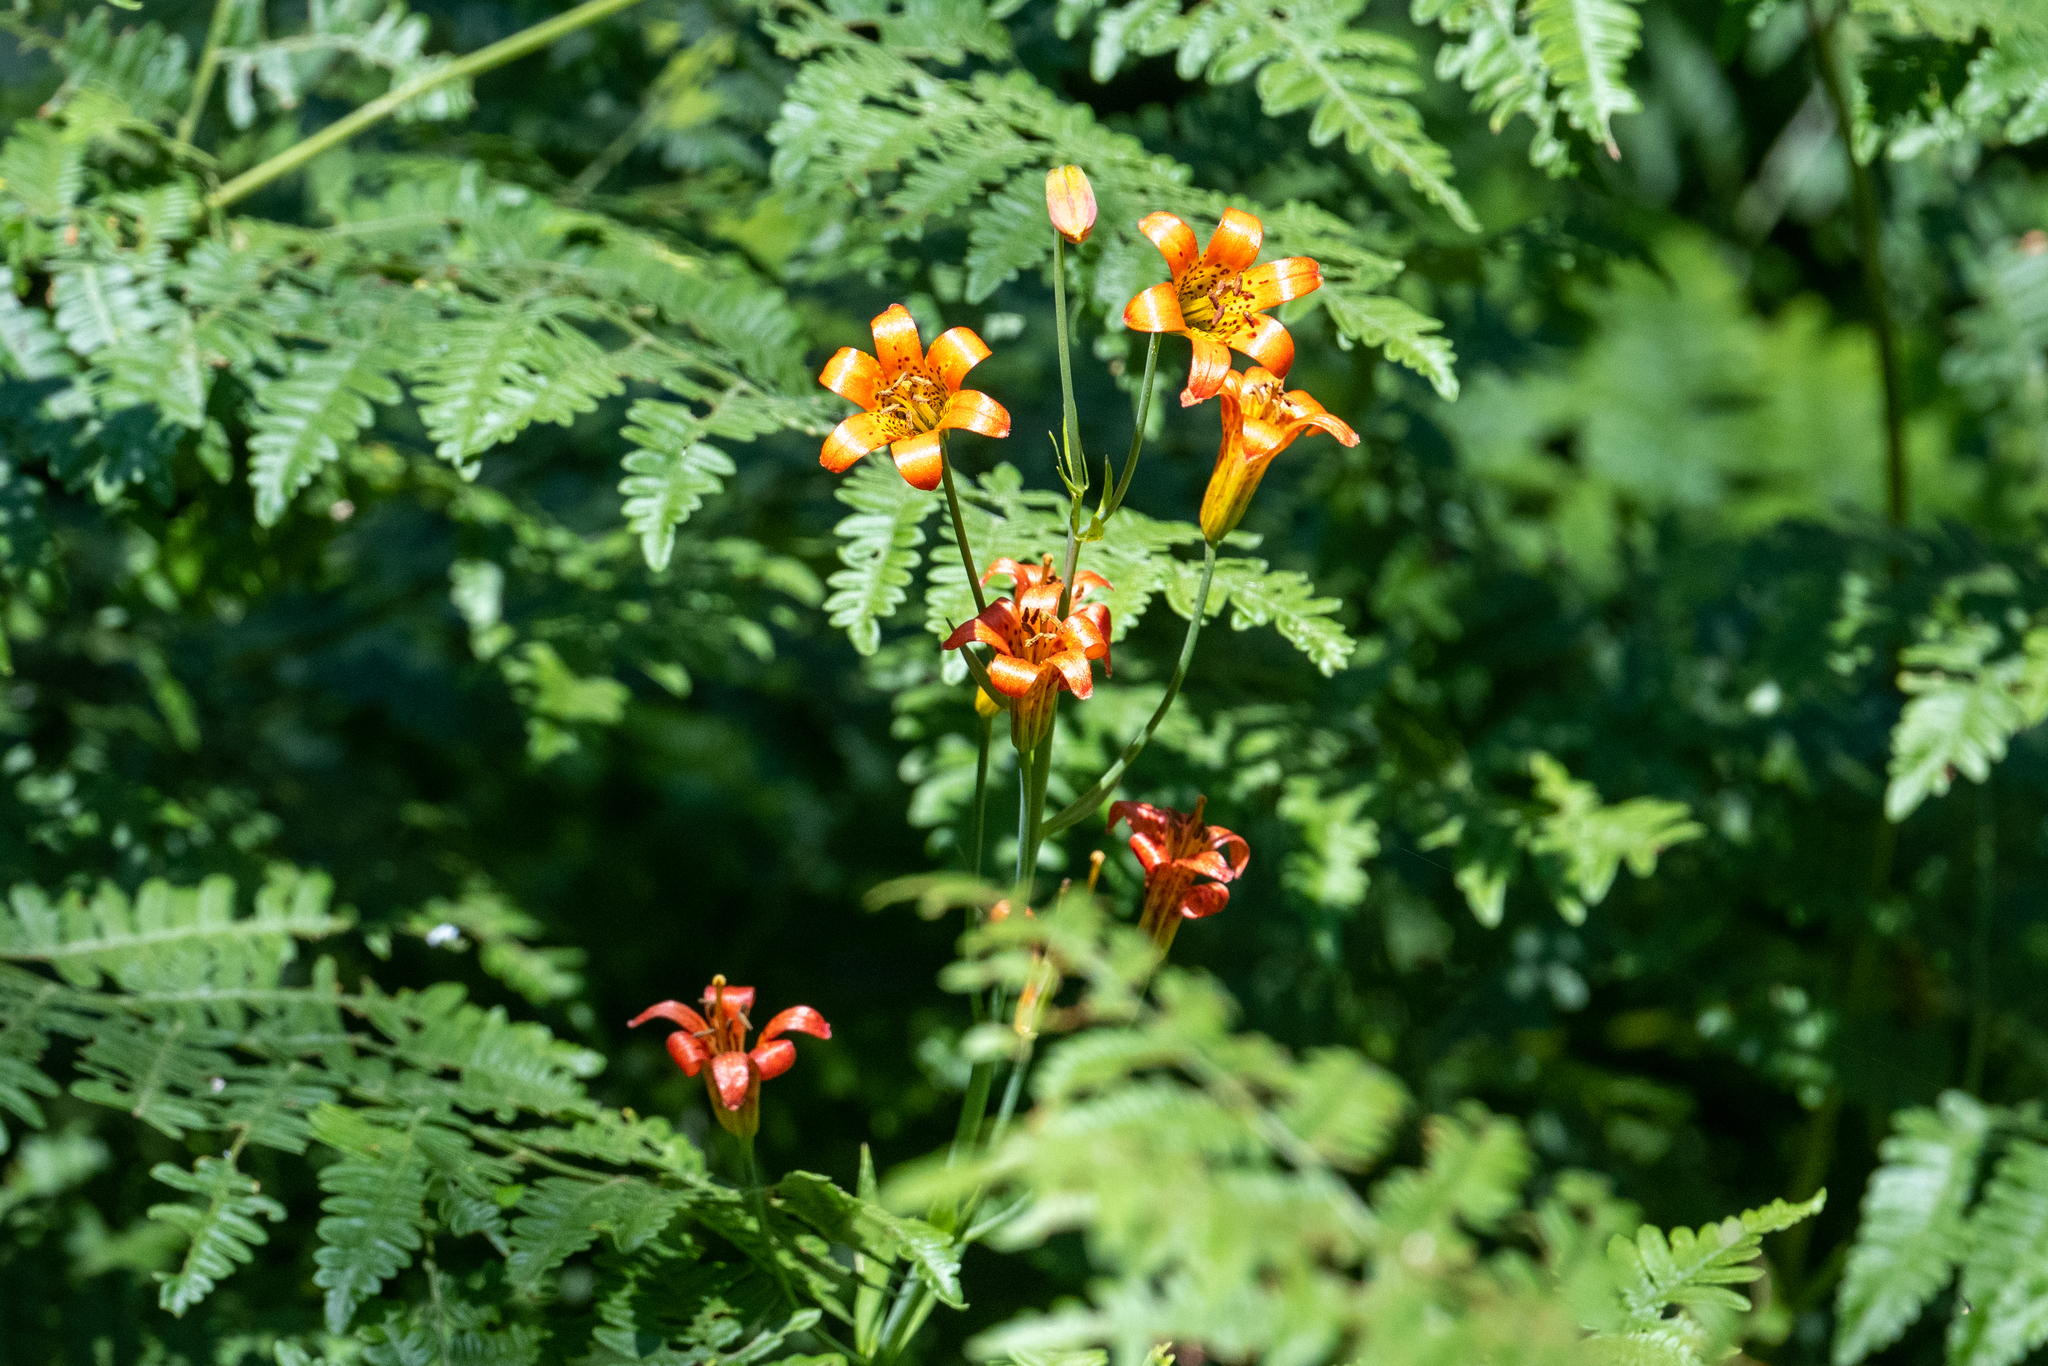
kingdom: Plantae
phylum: Tracheophyta
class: Liliopsida
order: Liliales
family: Liliaceae
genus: Lilium
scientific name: Lilium parvum
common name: Alpine lily
